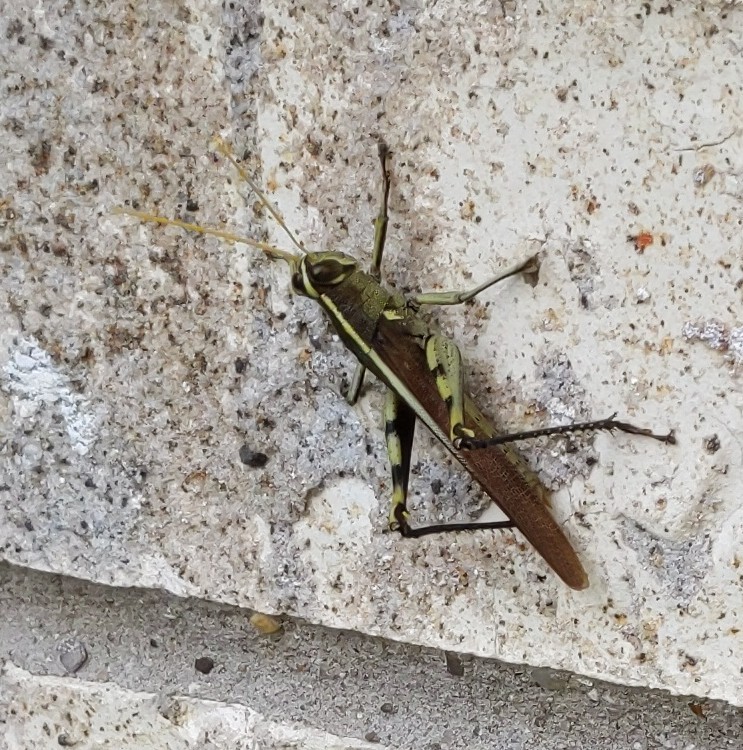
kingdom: Animalia
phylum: Arthropoda
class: Insecta
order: Orthoptera
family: Acrididae
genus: Schistocerca
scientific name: Schistocerca obscura
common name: Obscure bird grasshopper
